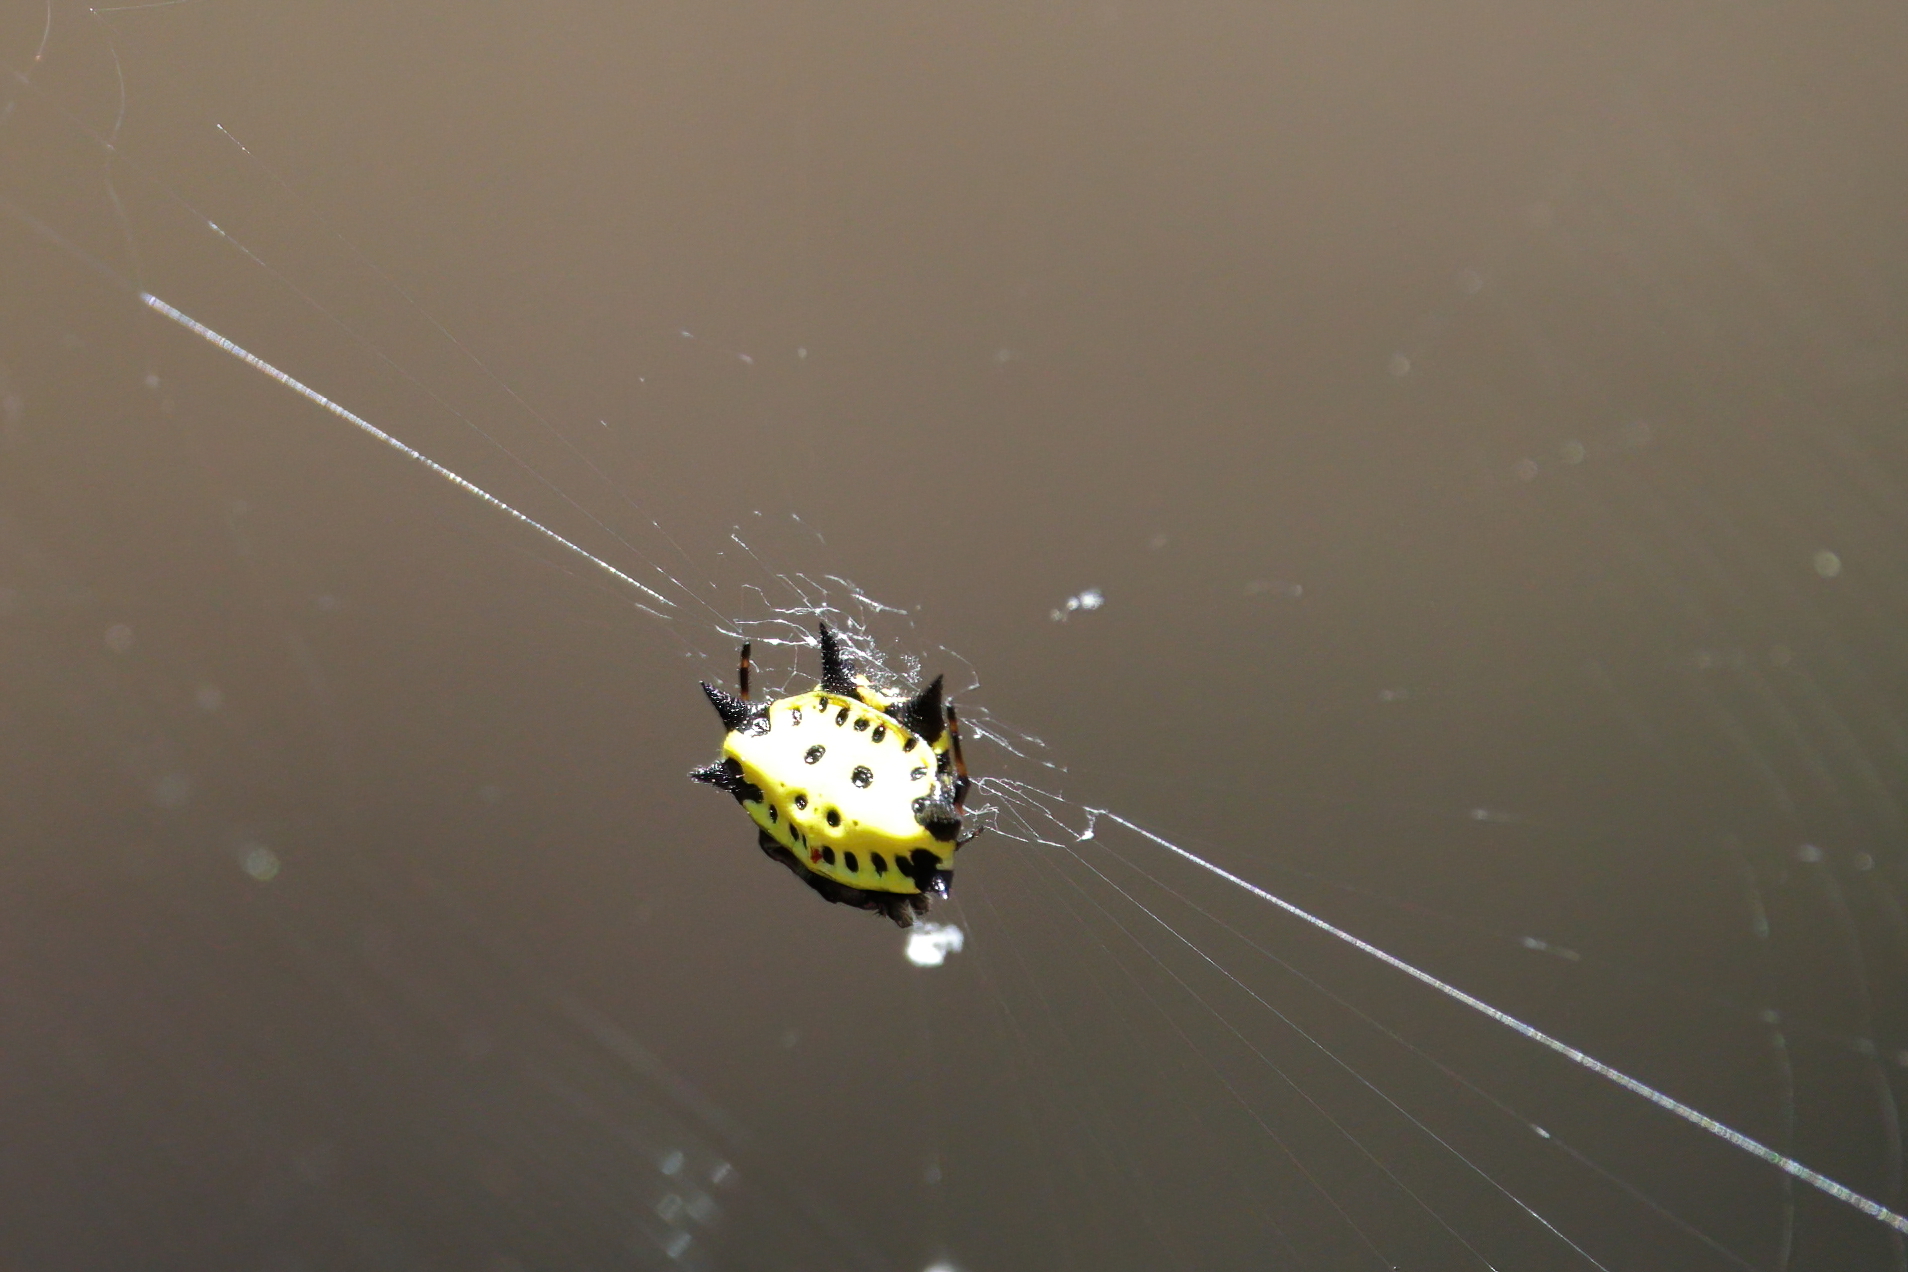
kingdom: Animalia
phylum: Arthropoda
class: Arachnida
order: Araneae
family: Araneidae
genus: Gasteracantha
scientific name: Gasteracantha cancriformis
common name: Orb weavers
